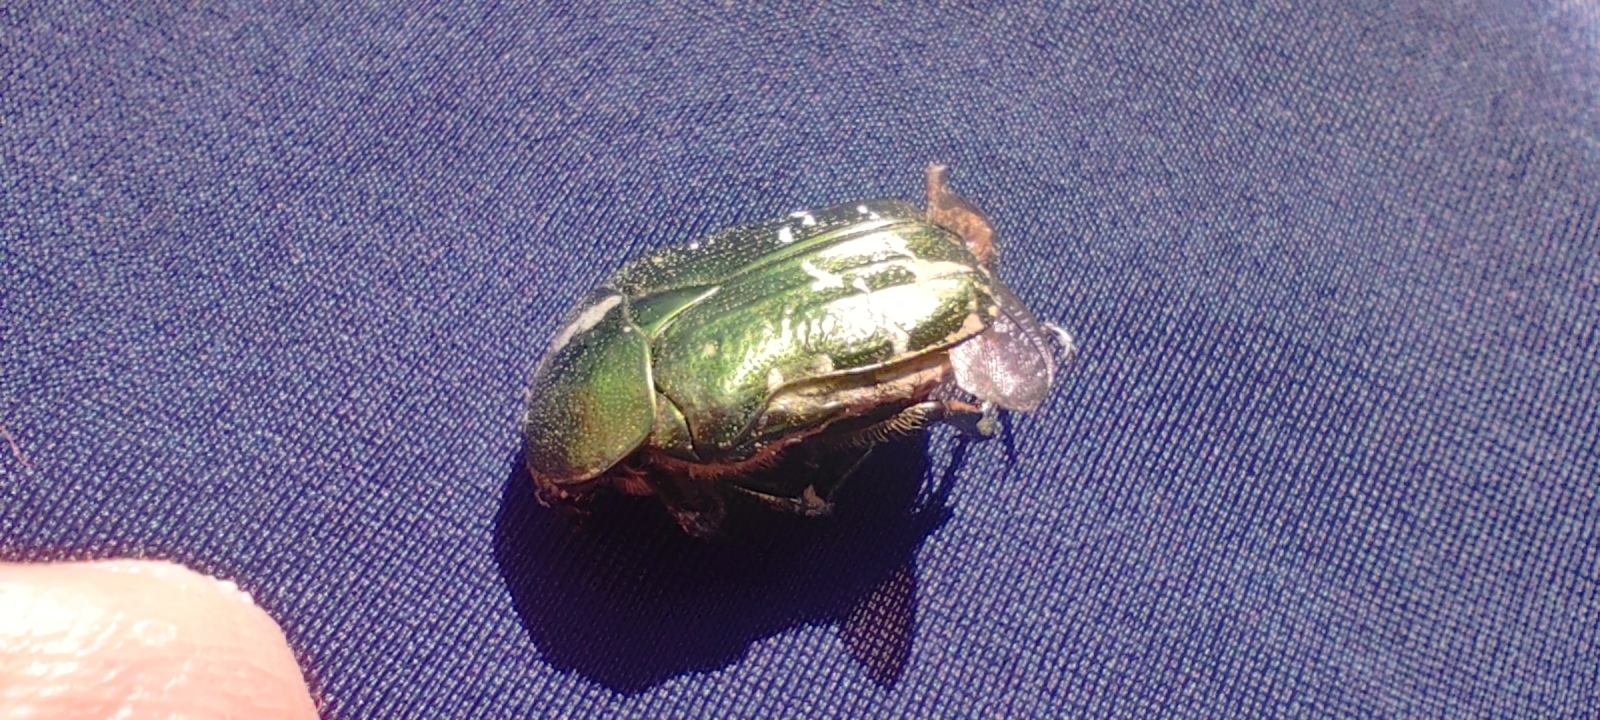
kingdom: Animalia
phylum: Arthropoda
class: Insecta
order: Coleoptera
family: Scarabaeidae
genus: Cetonia
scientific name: Cetonia aurata
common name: Rose chafer
